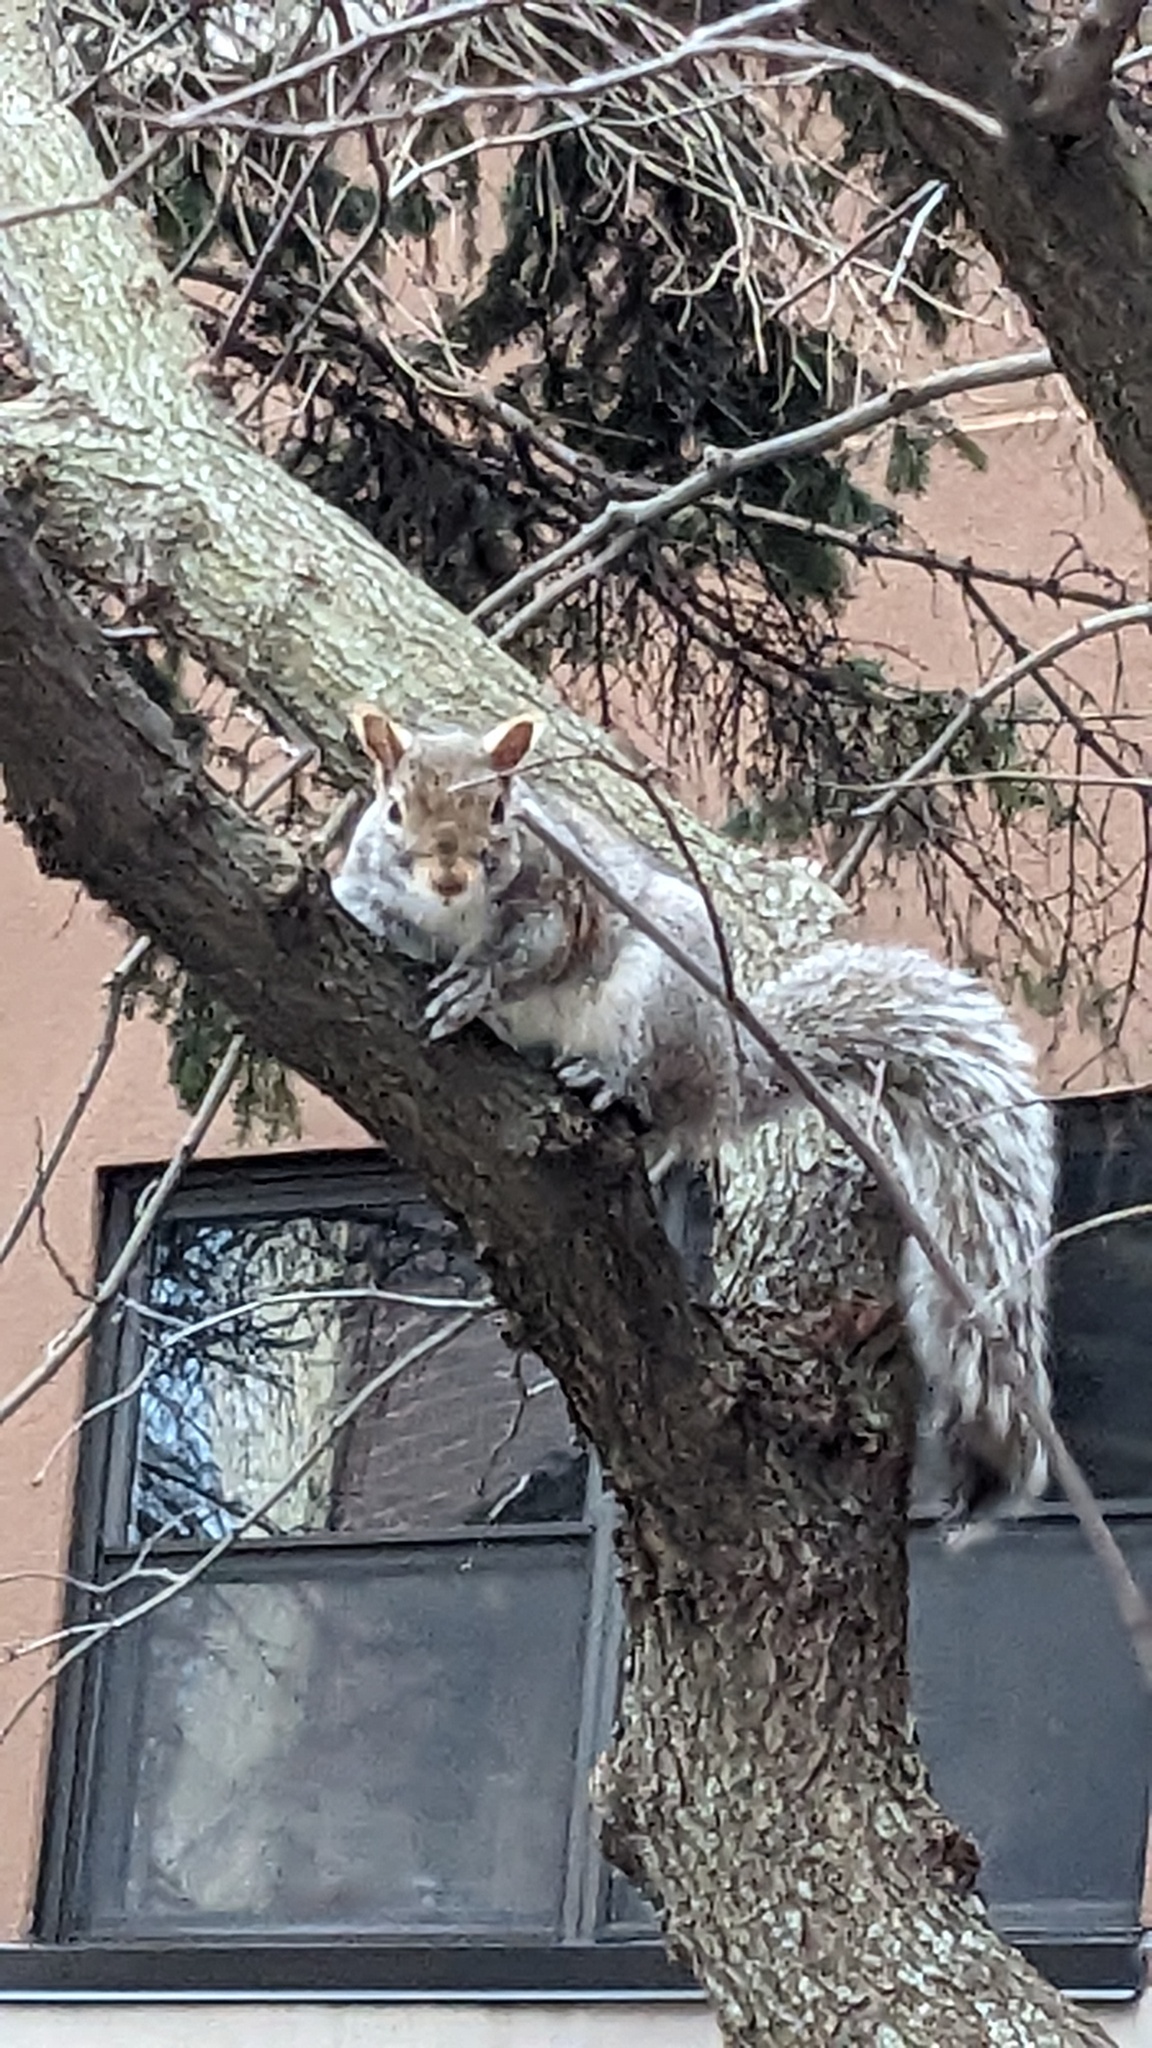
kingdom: Animalia
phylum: Chordata
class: Mammalia
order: Rodentia
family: Sciuridae
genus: Sciurus
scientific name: Sciurus carolinensis
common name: Eastern gray squirrel
